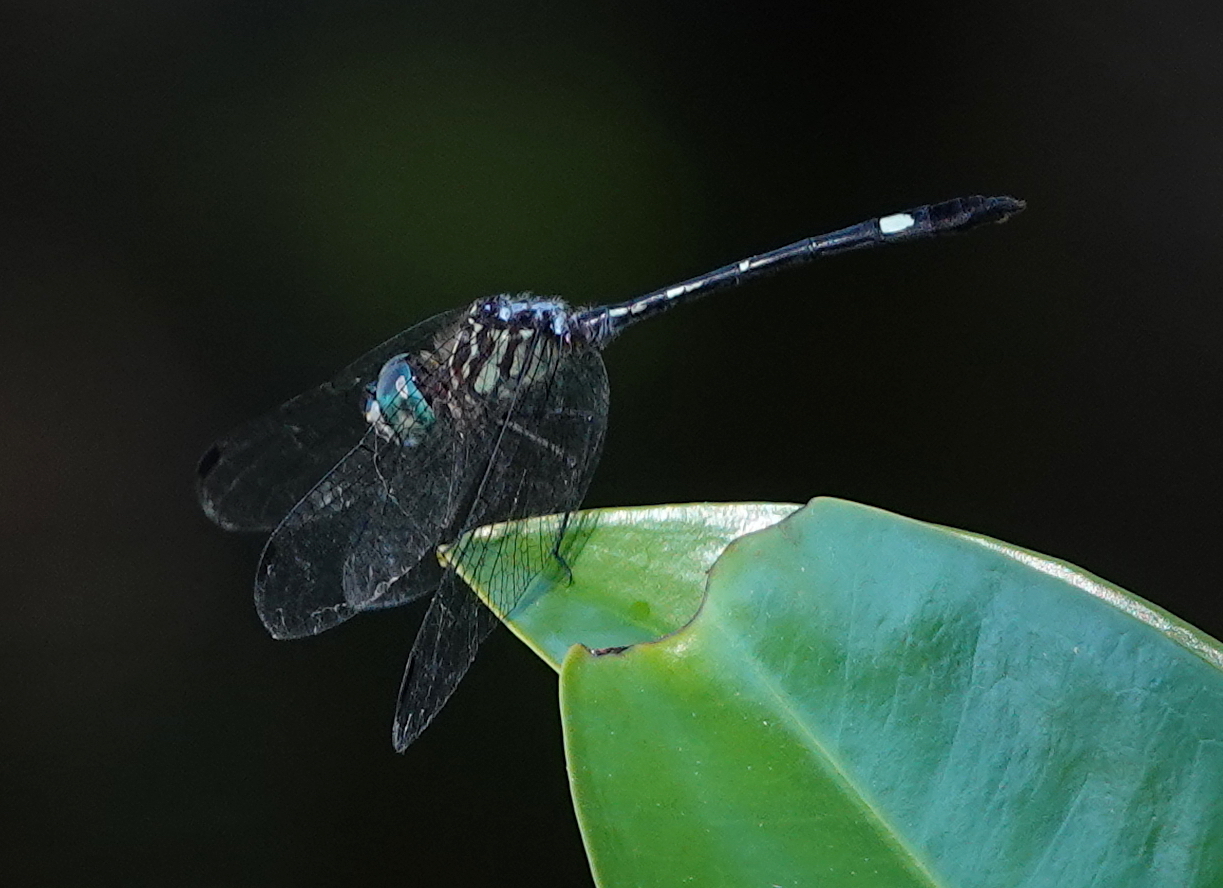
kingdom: Animalia
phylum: Arthropoda
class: Insecta
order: Odonata
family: Libellulidae
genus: Micrathyria
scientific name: Micrathyria didyma
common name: Three-striped dasher
